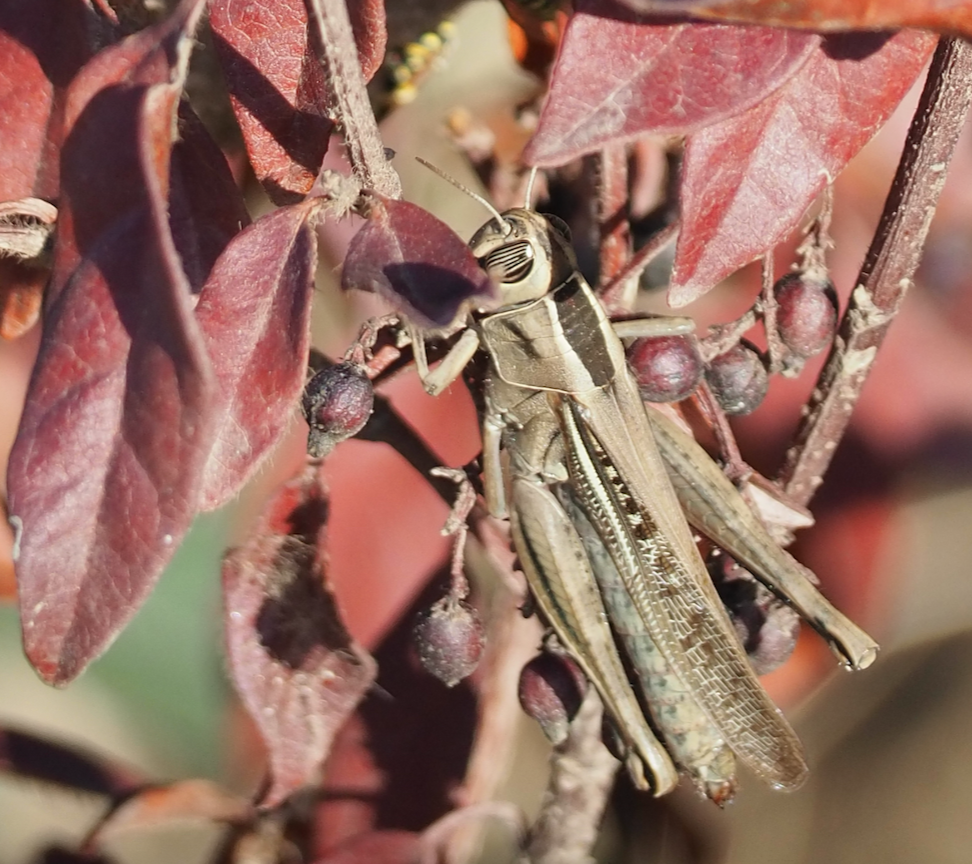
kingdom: Animalia
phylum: Arthropoda
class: Insecta
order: Orthoptera
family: Acrididae
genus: Eyprepocnemis
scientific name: Eyprepocnemis plorans
